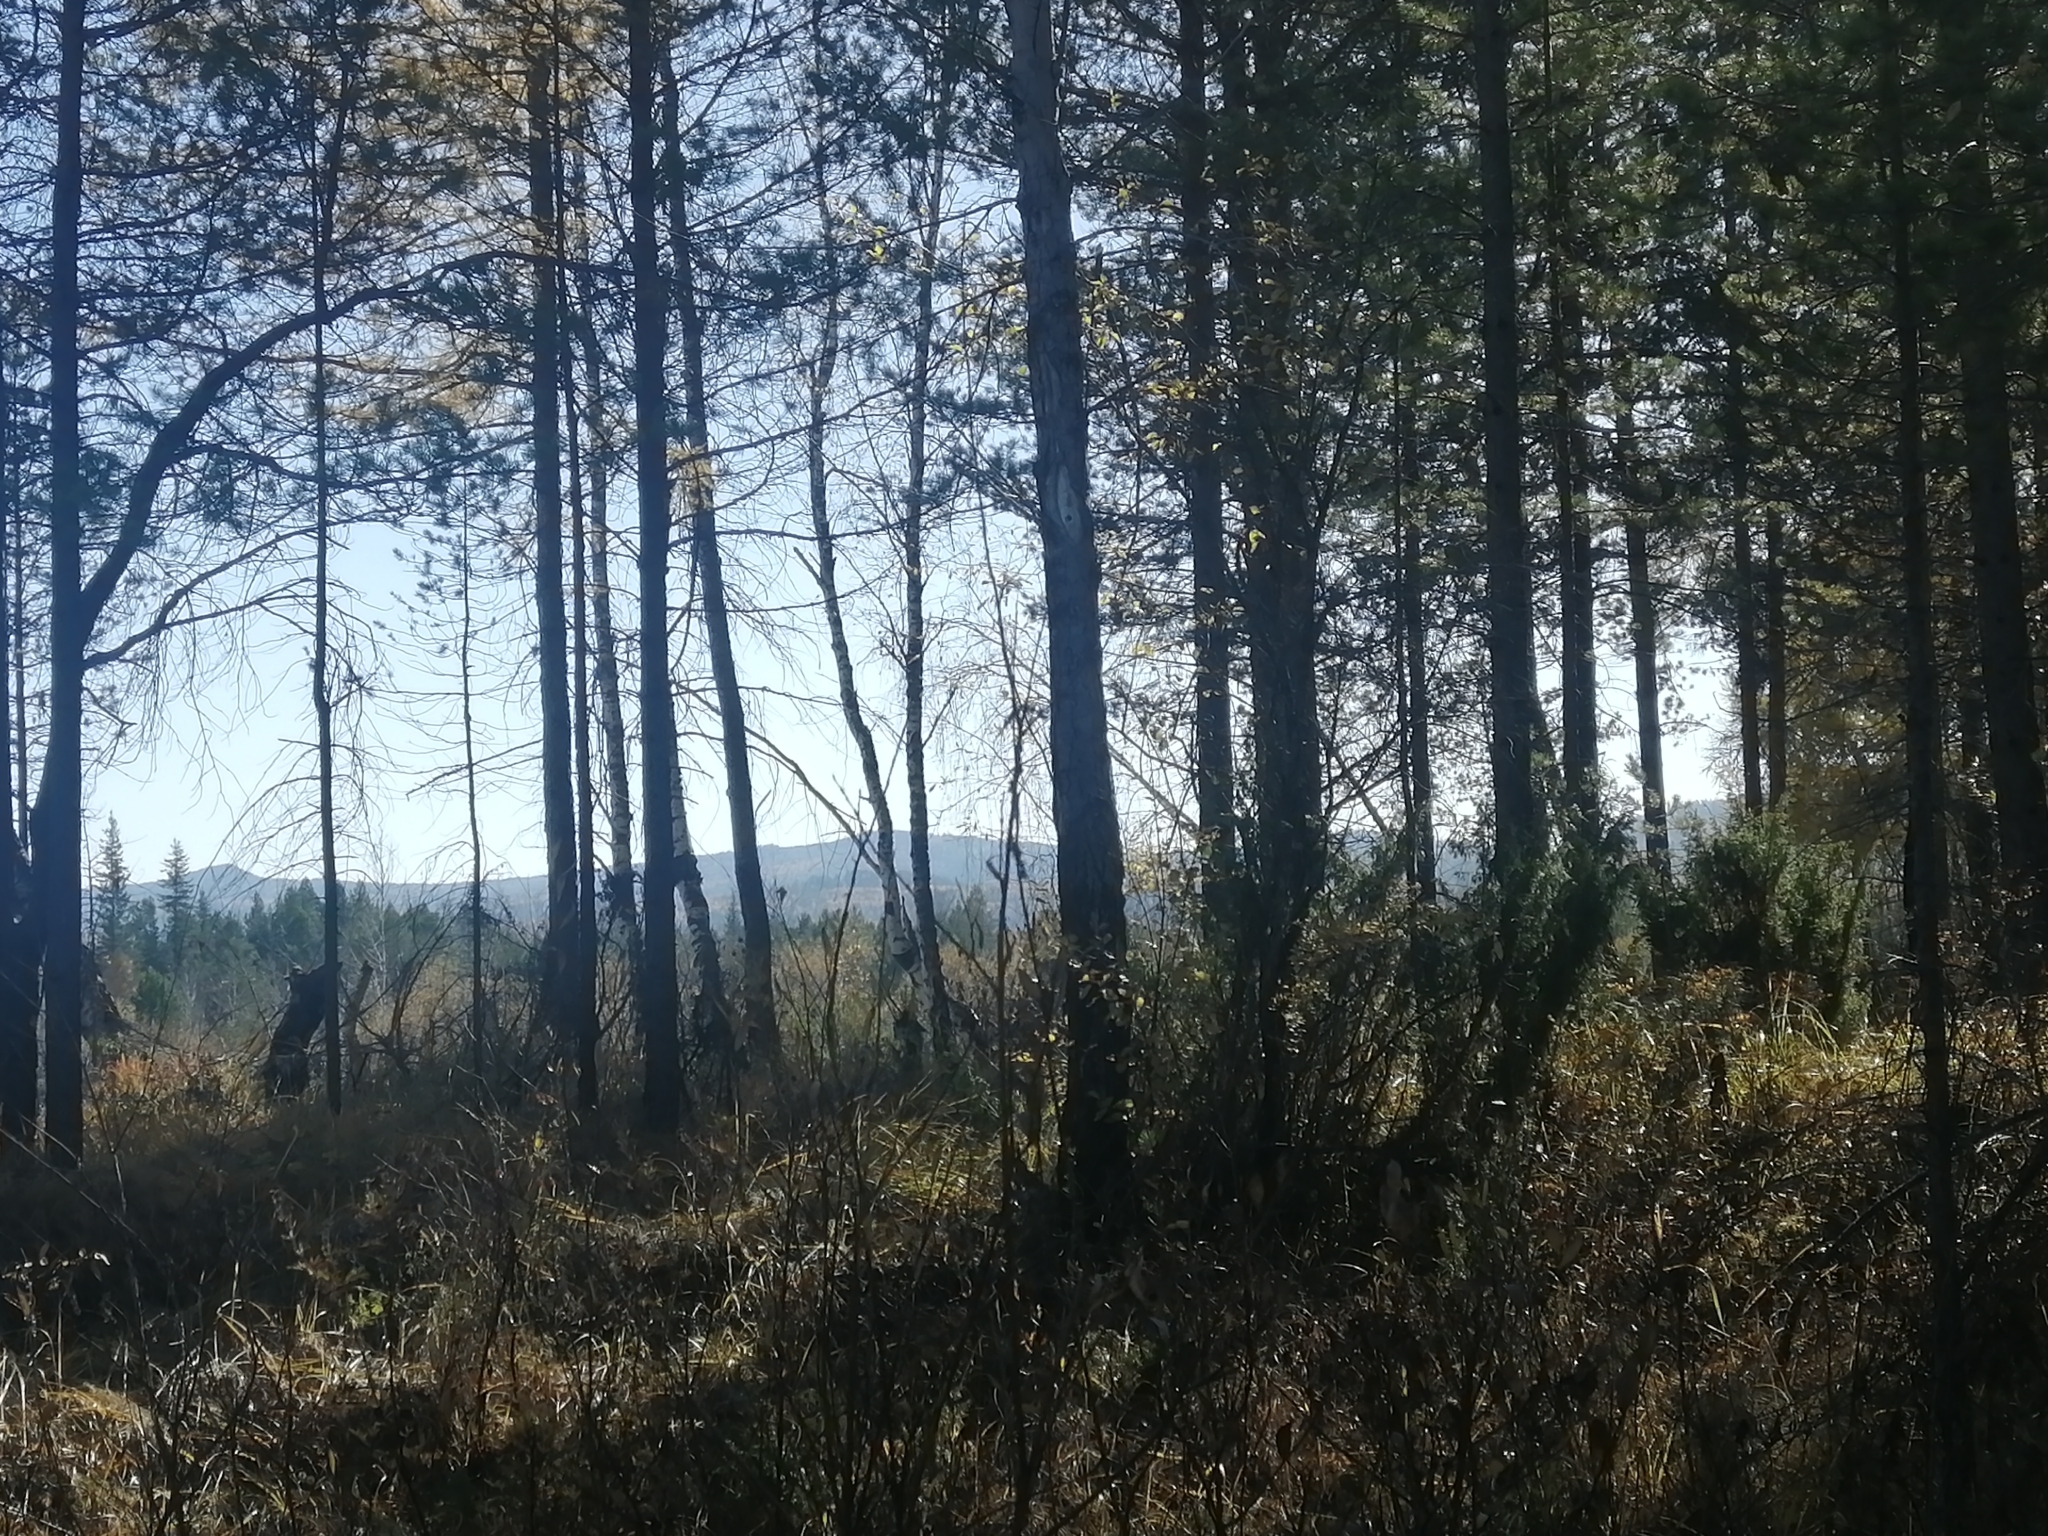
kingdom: Plantae
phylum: Tracheophyta
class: Pinopsida
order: Pinales
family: Pinaceae
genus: Pinus
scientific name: Pinus sylvestris
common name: Scots pine
